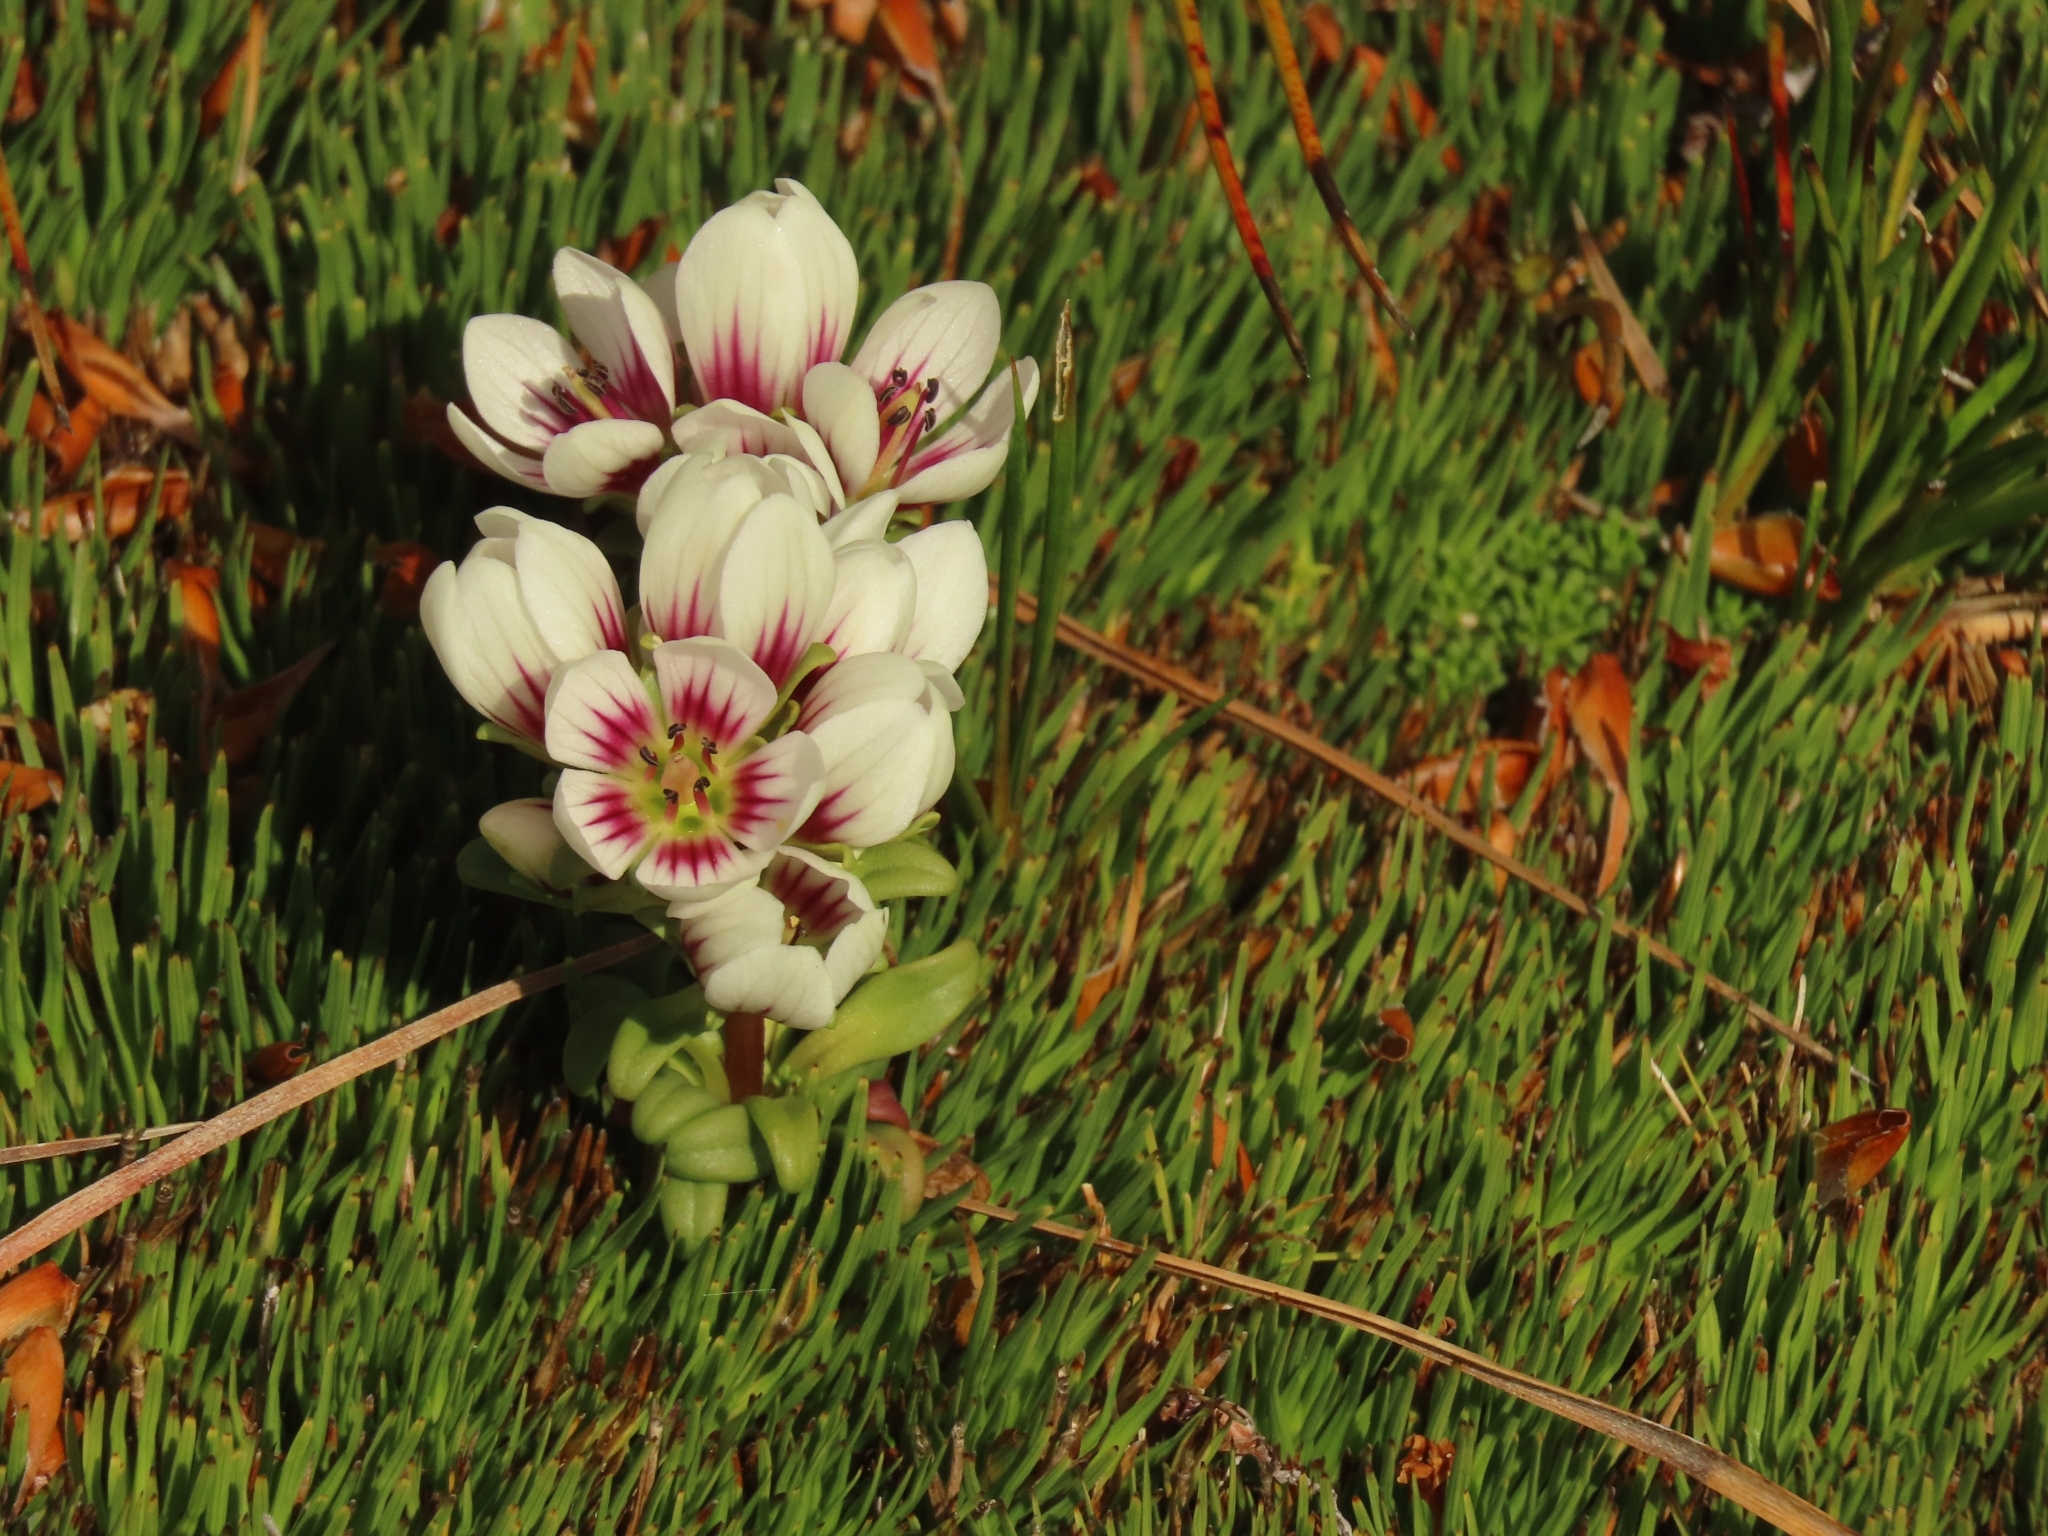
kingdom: Plantae
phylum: Tracheophyta
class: Magnoliopsida
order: Gentianales
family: Gentianaceae
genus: Gentianella
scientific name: Gentianella cerina
